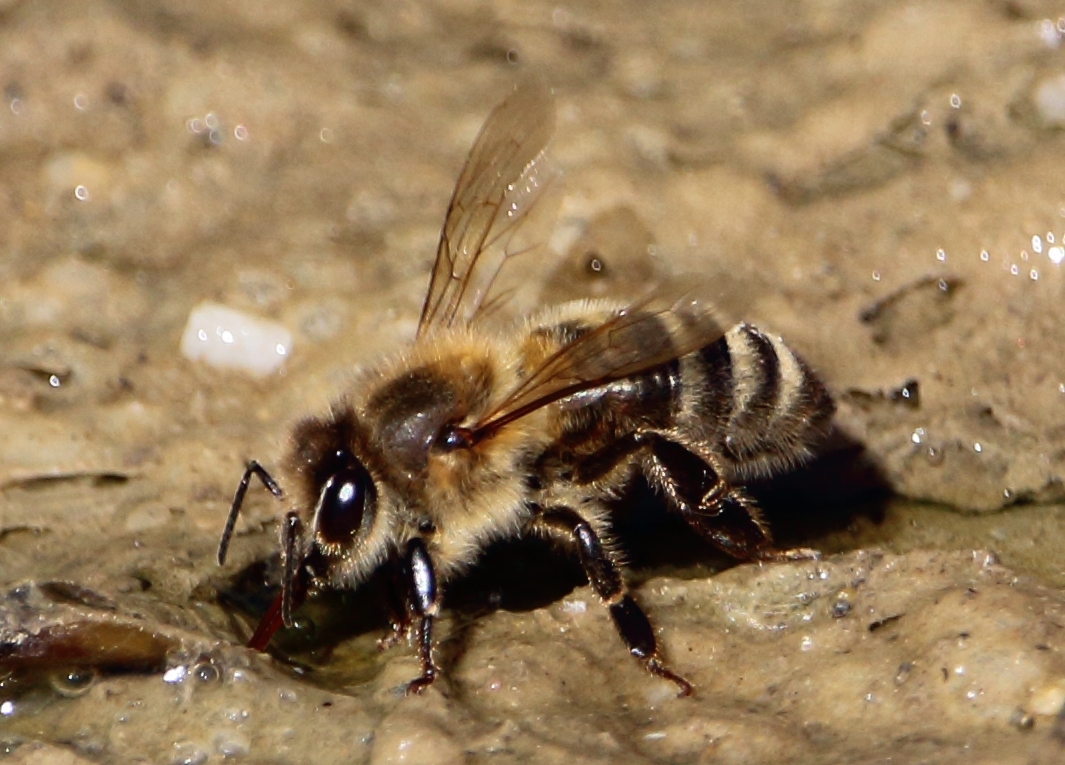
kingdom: Animalia
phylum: Arthropoda
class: Insecta
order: Hymenoptera
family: Apidae
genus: Apis
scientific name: Apis mellifera
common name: Honey bee
